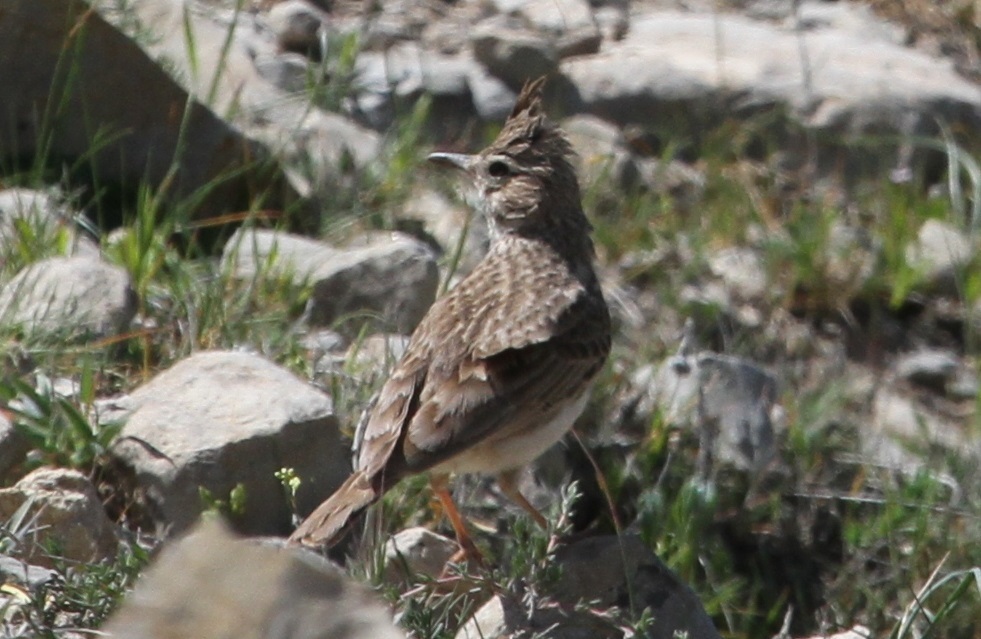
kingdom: Animalia
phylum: Chordata
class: Aves
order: Passeriformes
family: Alaudidae
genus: Galerida
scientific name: Galerida cristata
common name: Crested lark
